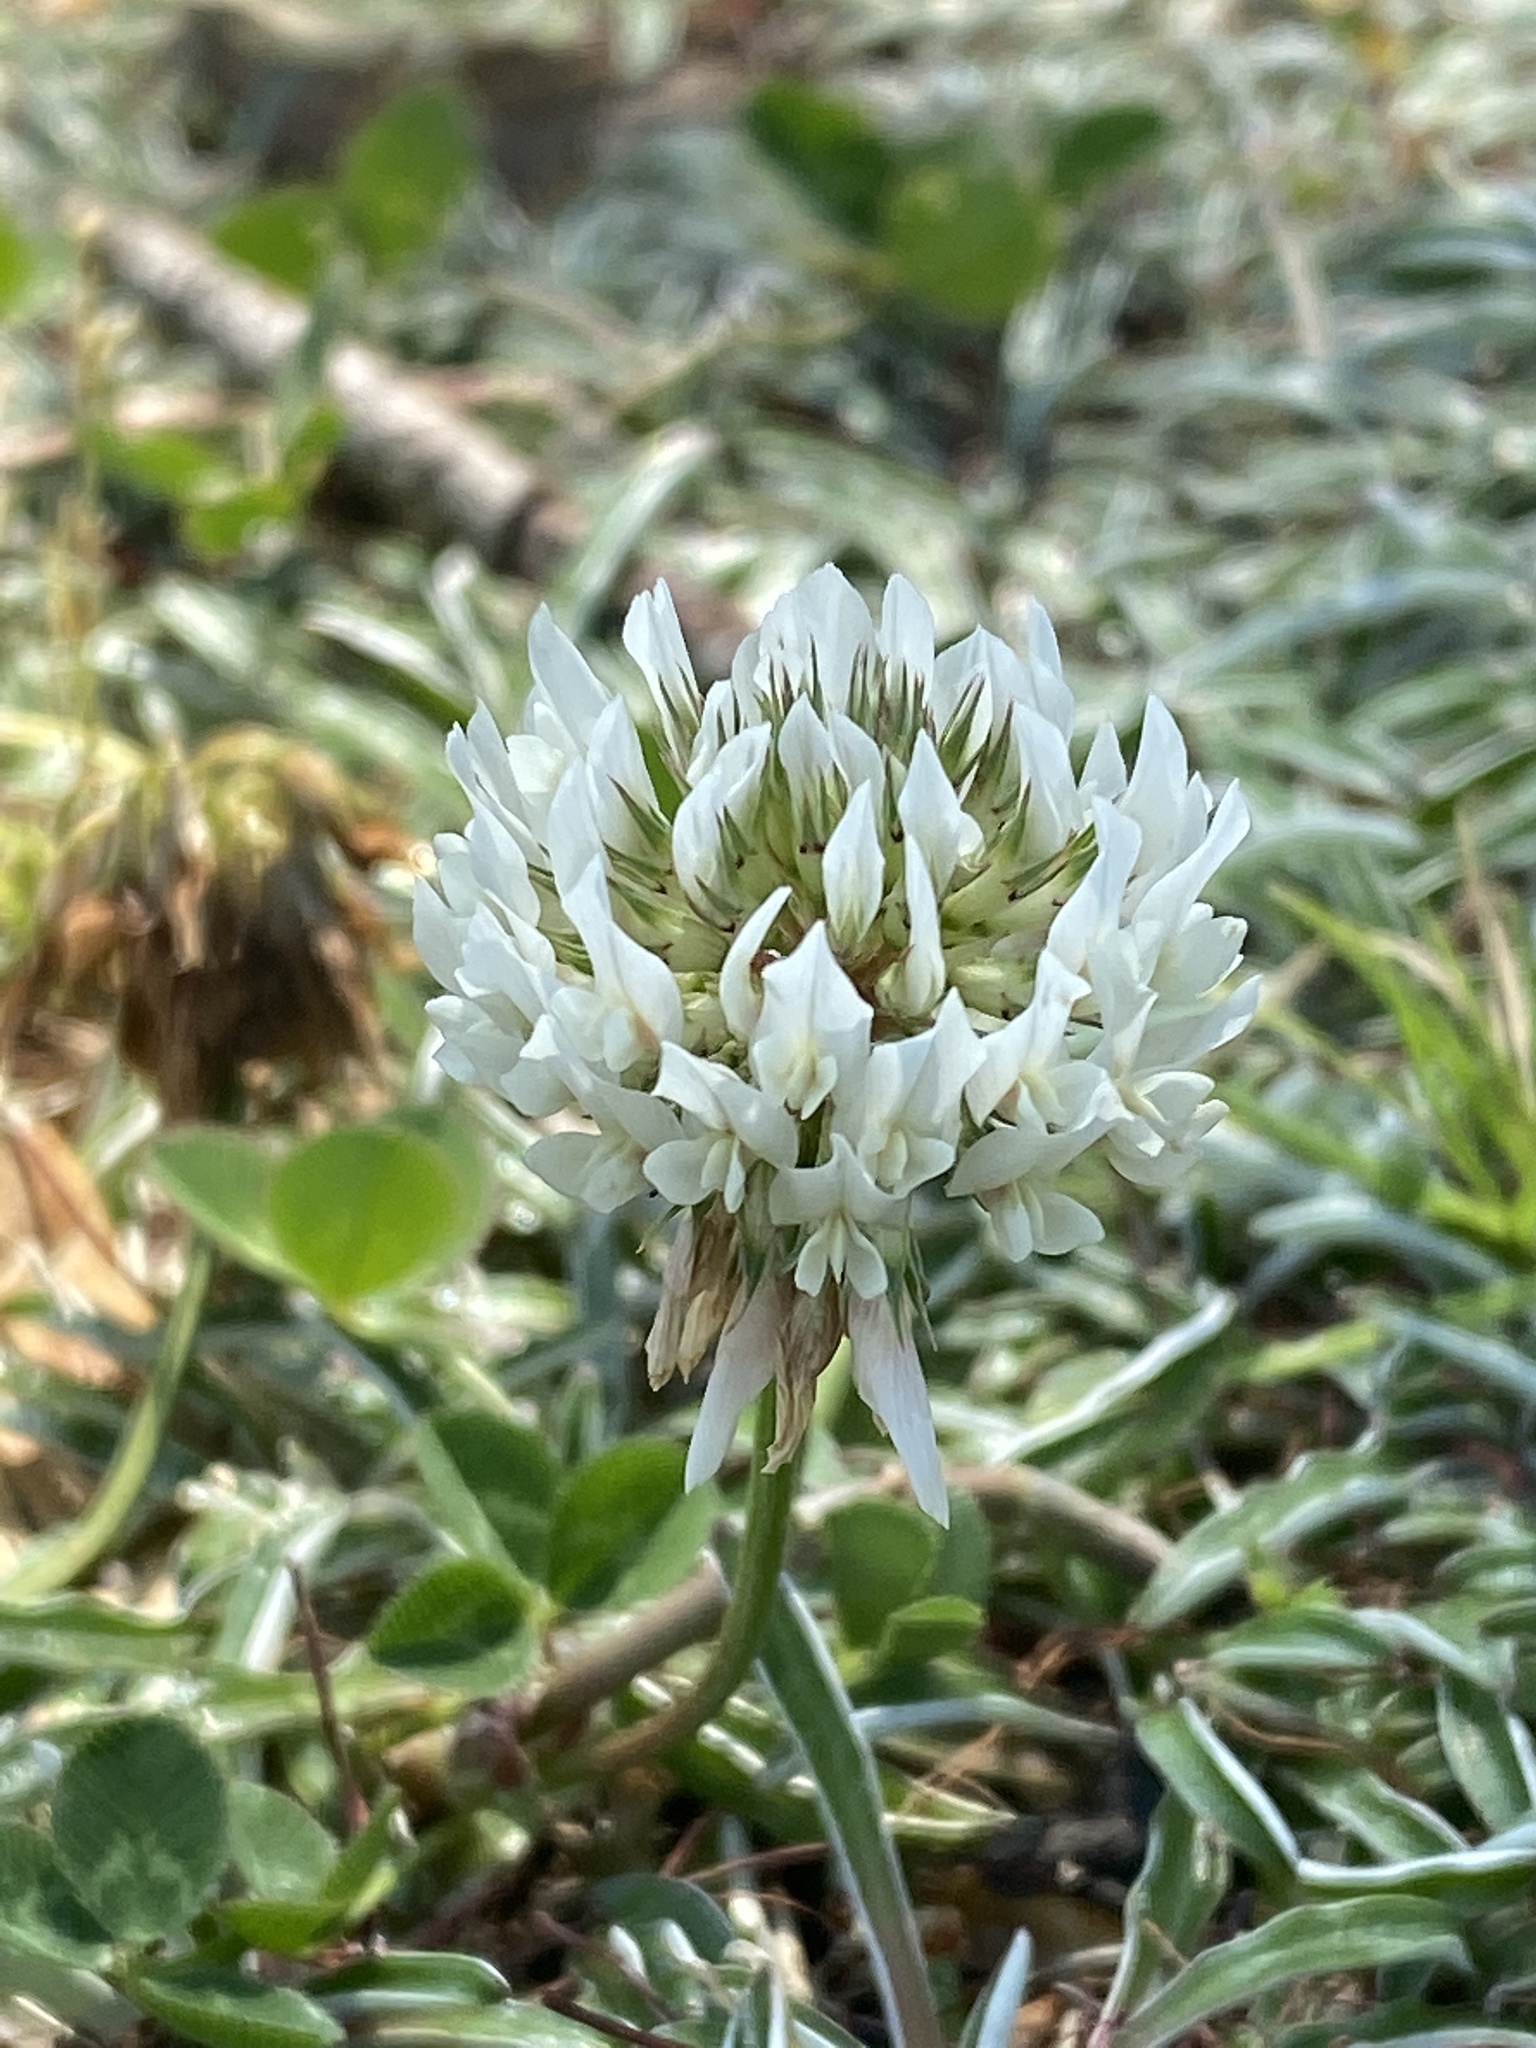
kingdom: Plantae
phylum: Tracheophyta
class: Magnoliopsida
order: Fabales
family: Fabaceae
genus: Trifolium
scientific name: Trifolium repens
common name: White clover
